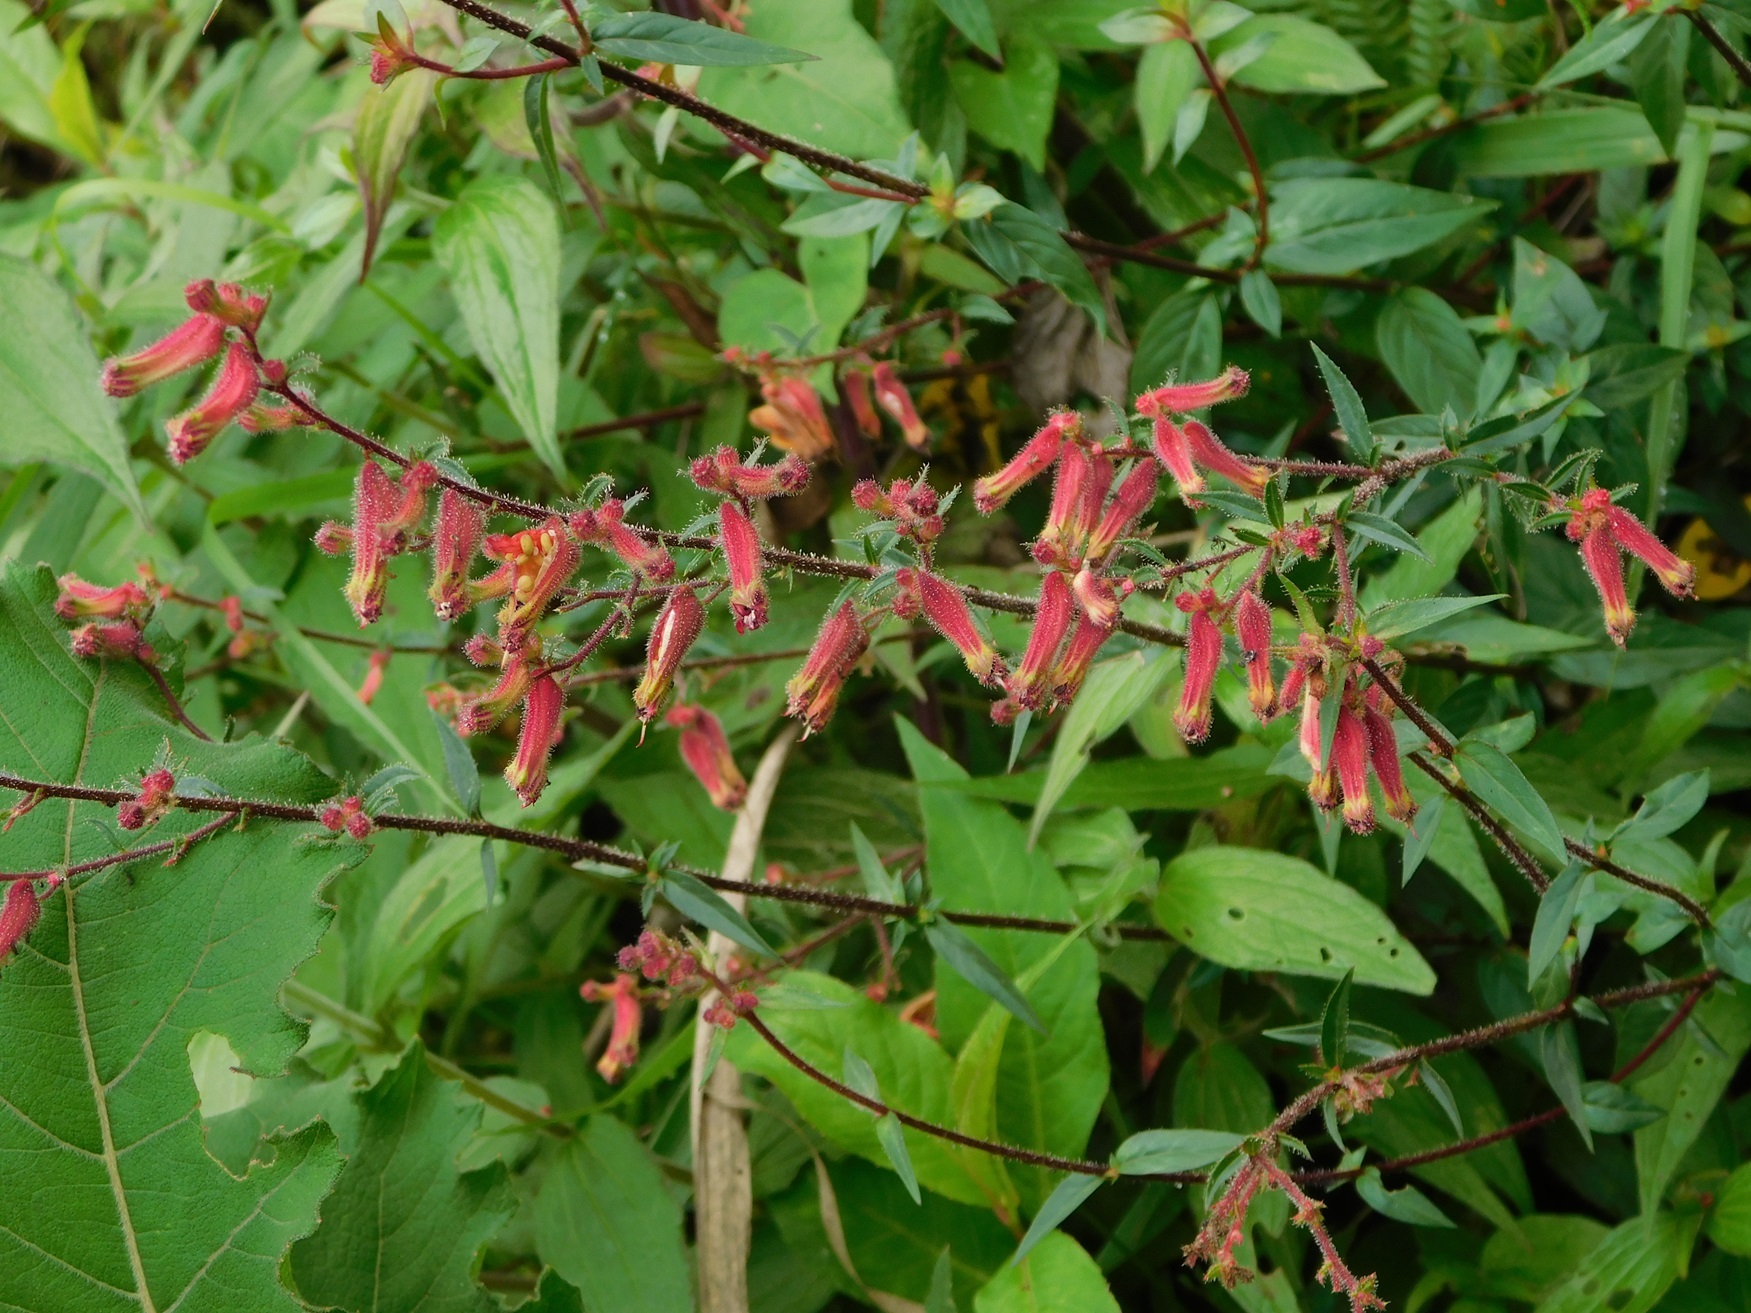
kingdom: Plantae
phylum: Tracheophyta
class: Magnoliopsida
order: Myrtales
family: Lythraceae
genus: Cuphea
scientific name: Cuphea hookeriana
